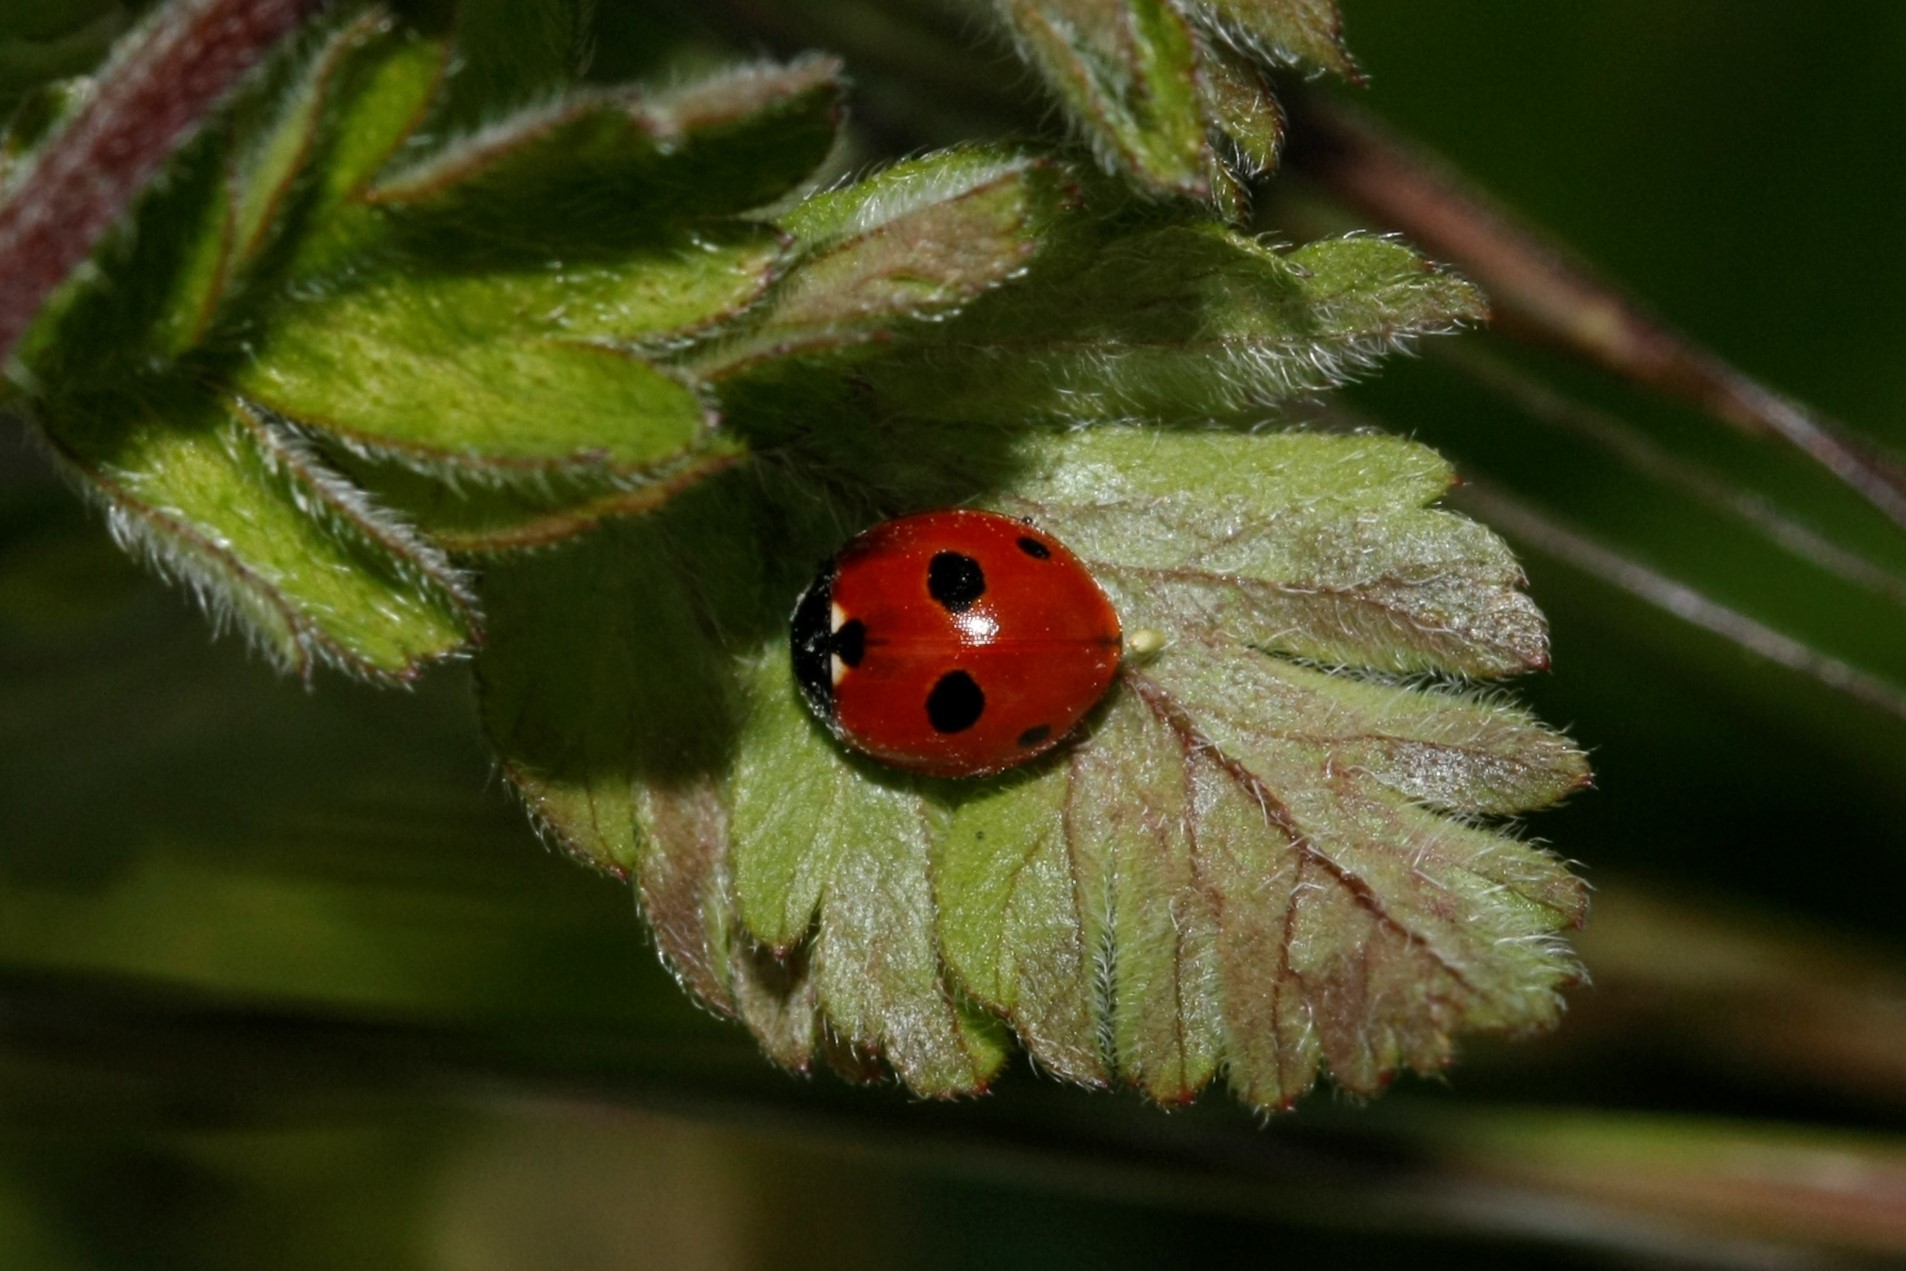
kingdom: Animalia
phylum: Arthropoda
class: Insecta
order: Coleoptera
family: Coccinellidae
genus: Coccinella
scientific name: Coccinella quinquepunctata
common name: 5-spot ladybird
